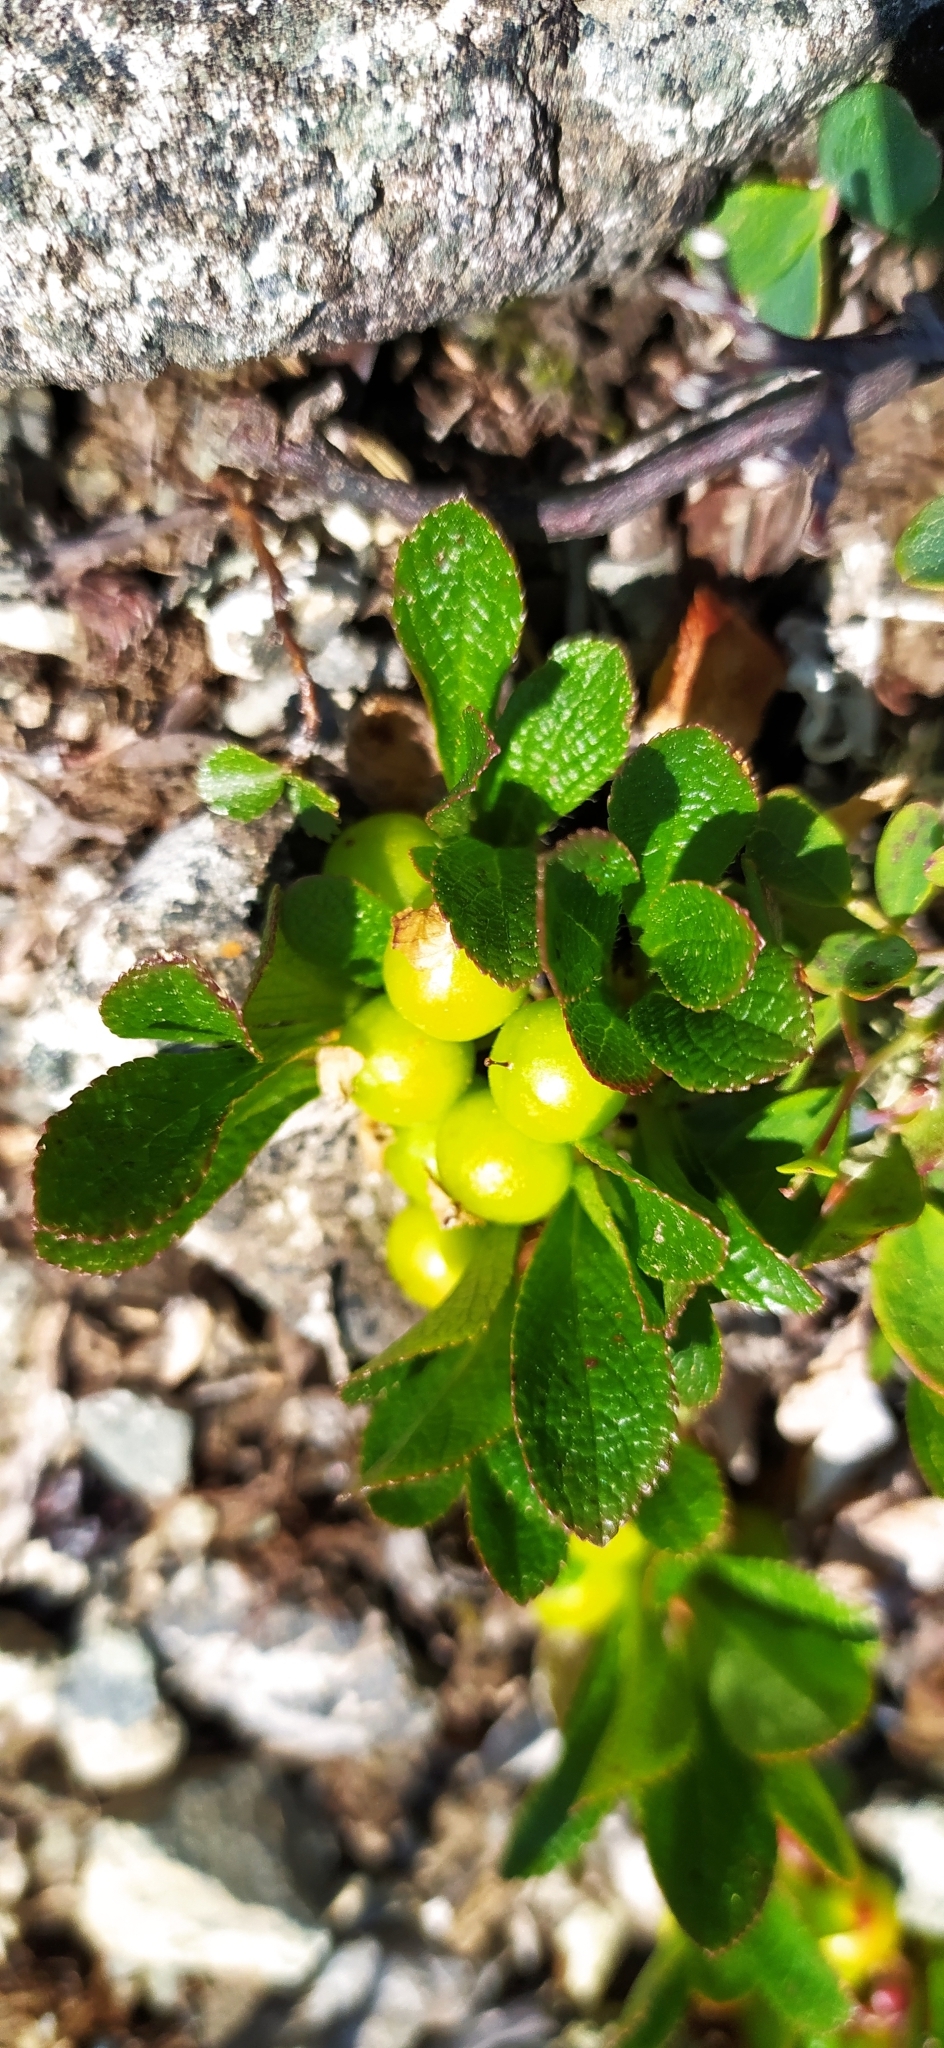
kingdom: Plantae
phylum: Tracheophyta
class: Magnoliopsida
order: Ericales
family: Ericaceae
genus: Arctostaphylos
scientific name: Arctostaphylos alpinus
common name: Alpine bearberry
